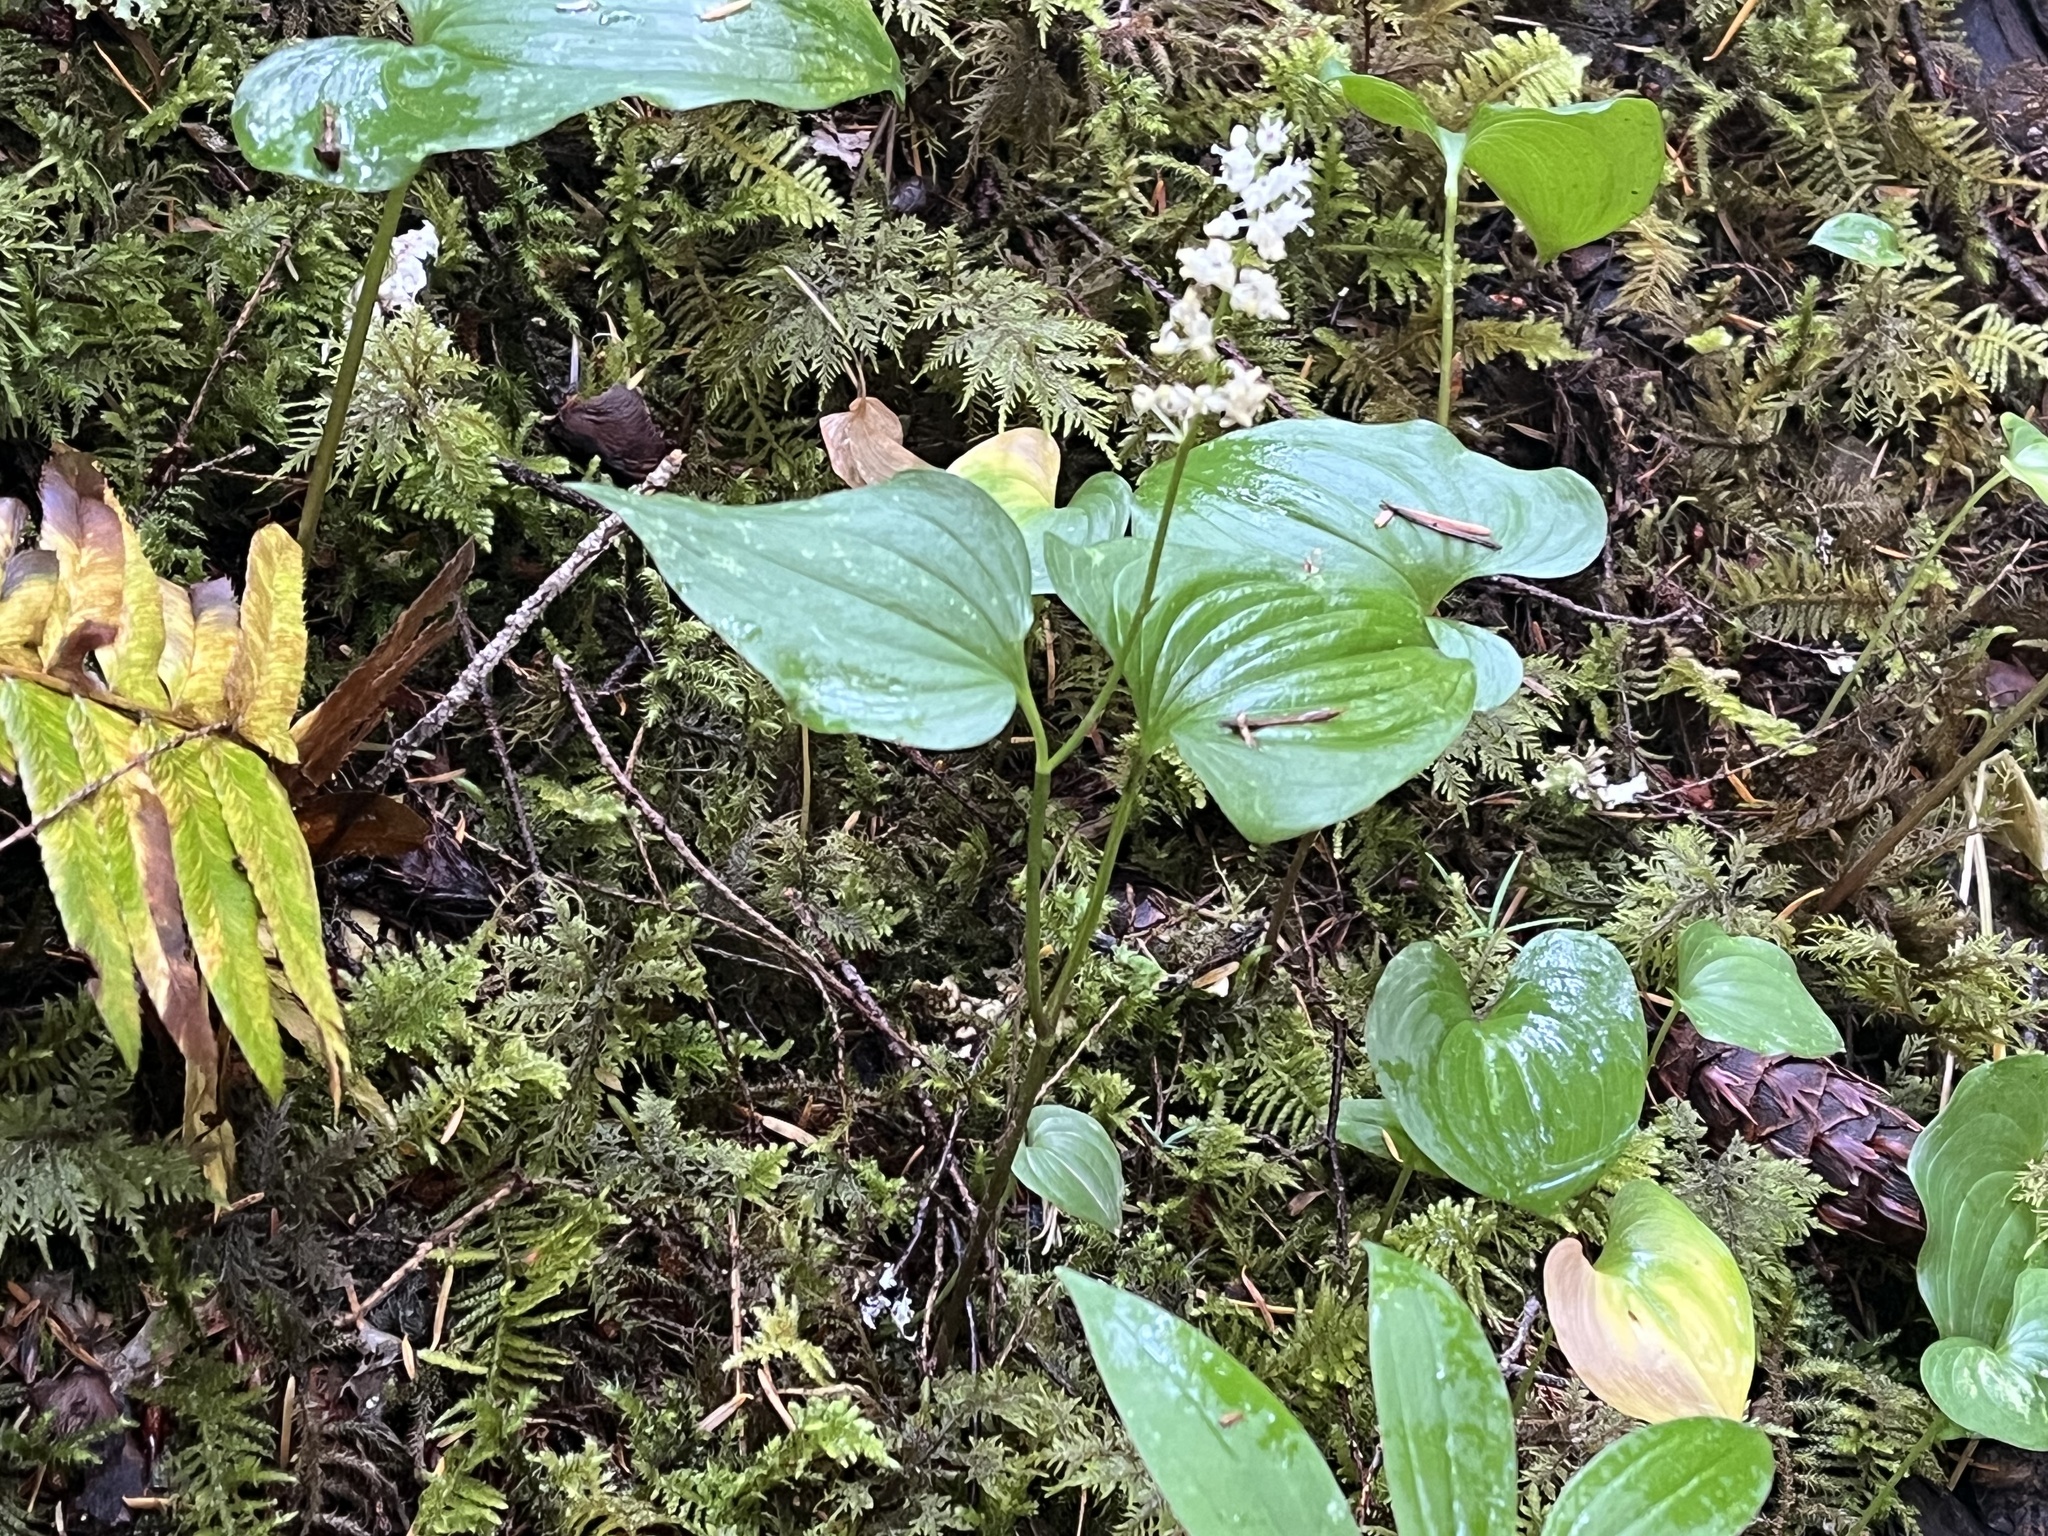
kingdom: Plantae
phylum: Tracheophyta
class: Liliopsida
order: Asparagales
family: Asparagaceae
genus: Maianthemum
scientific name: Maianthemum dilatatum
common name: False lily-of-the-valley
